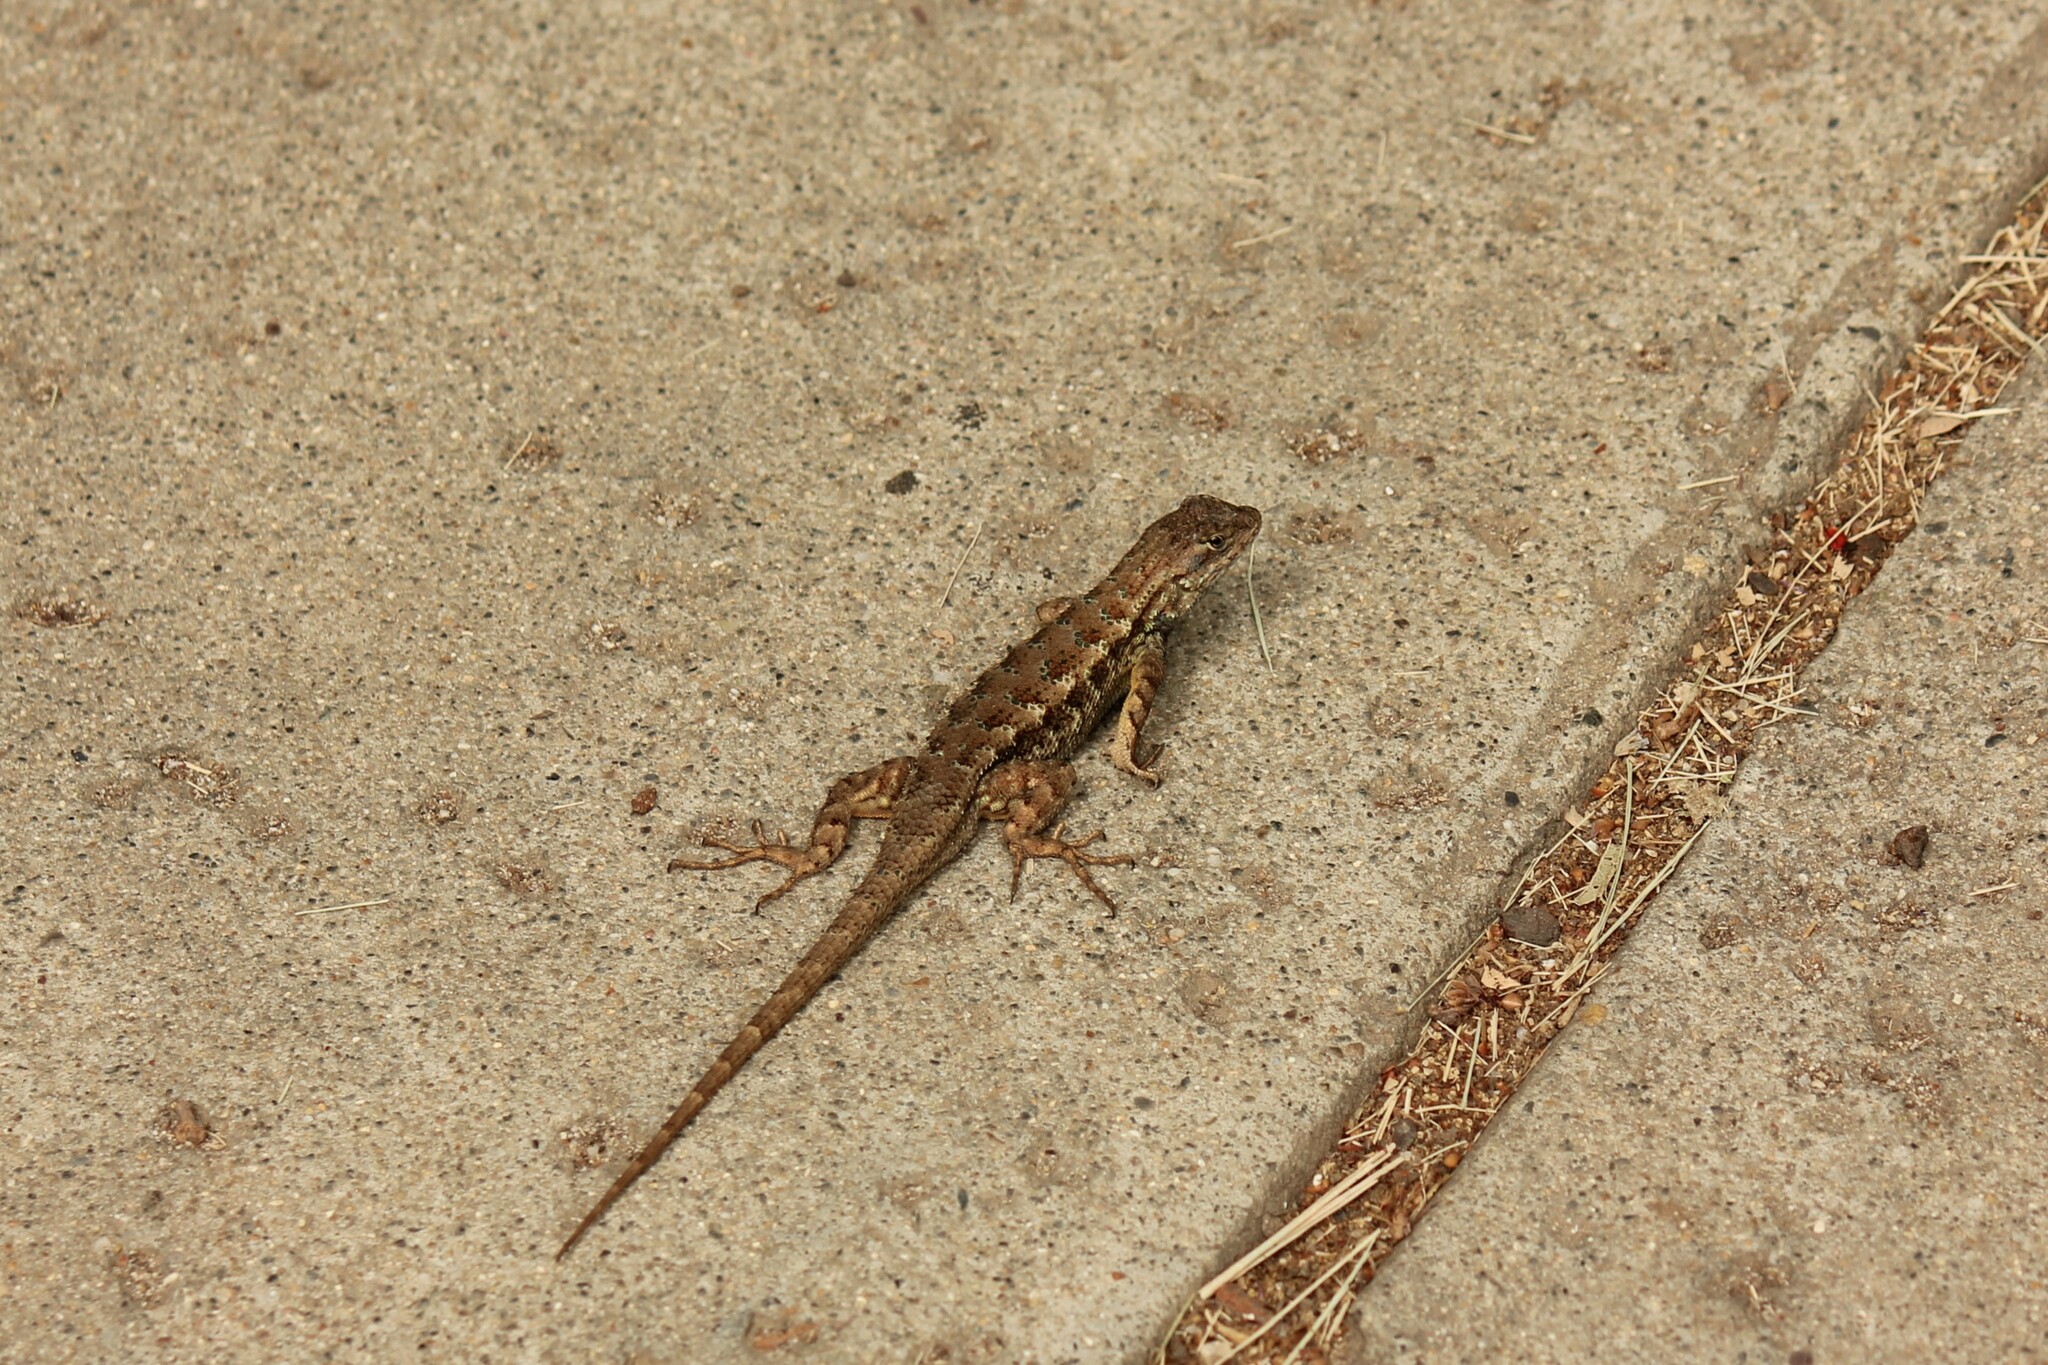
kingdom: Animalia
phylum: Chordata
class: Squamata
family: Phrynosomatidae
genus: Sceloporus
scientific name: Sceloporus occidentalis
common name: Western fence lizard
